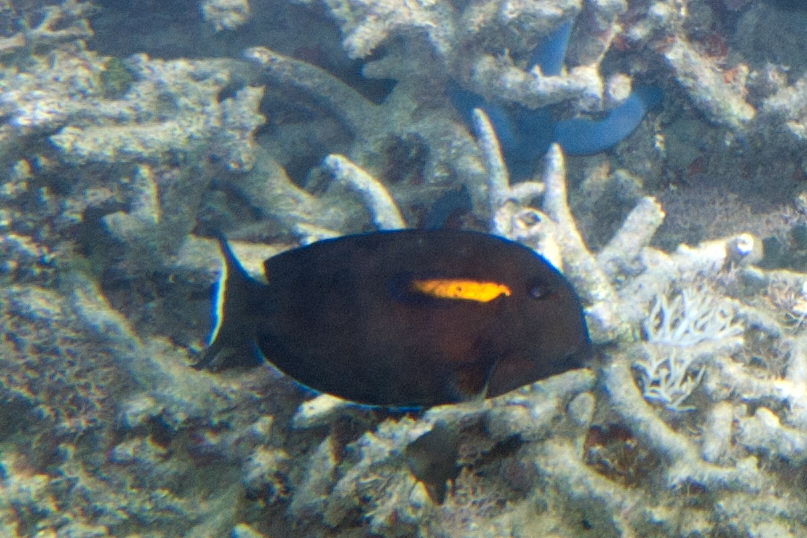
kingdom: Animalia
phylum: Chordata
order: Perciformes
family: Acanthuridae
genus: Acanthurus
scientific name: Acanthurus olivaceus
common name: Gendarme fish
